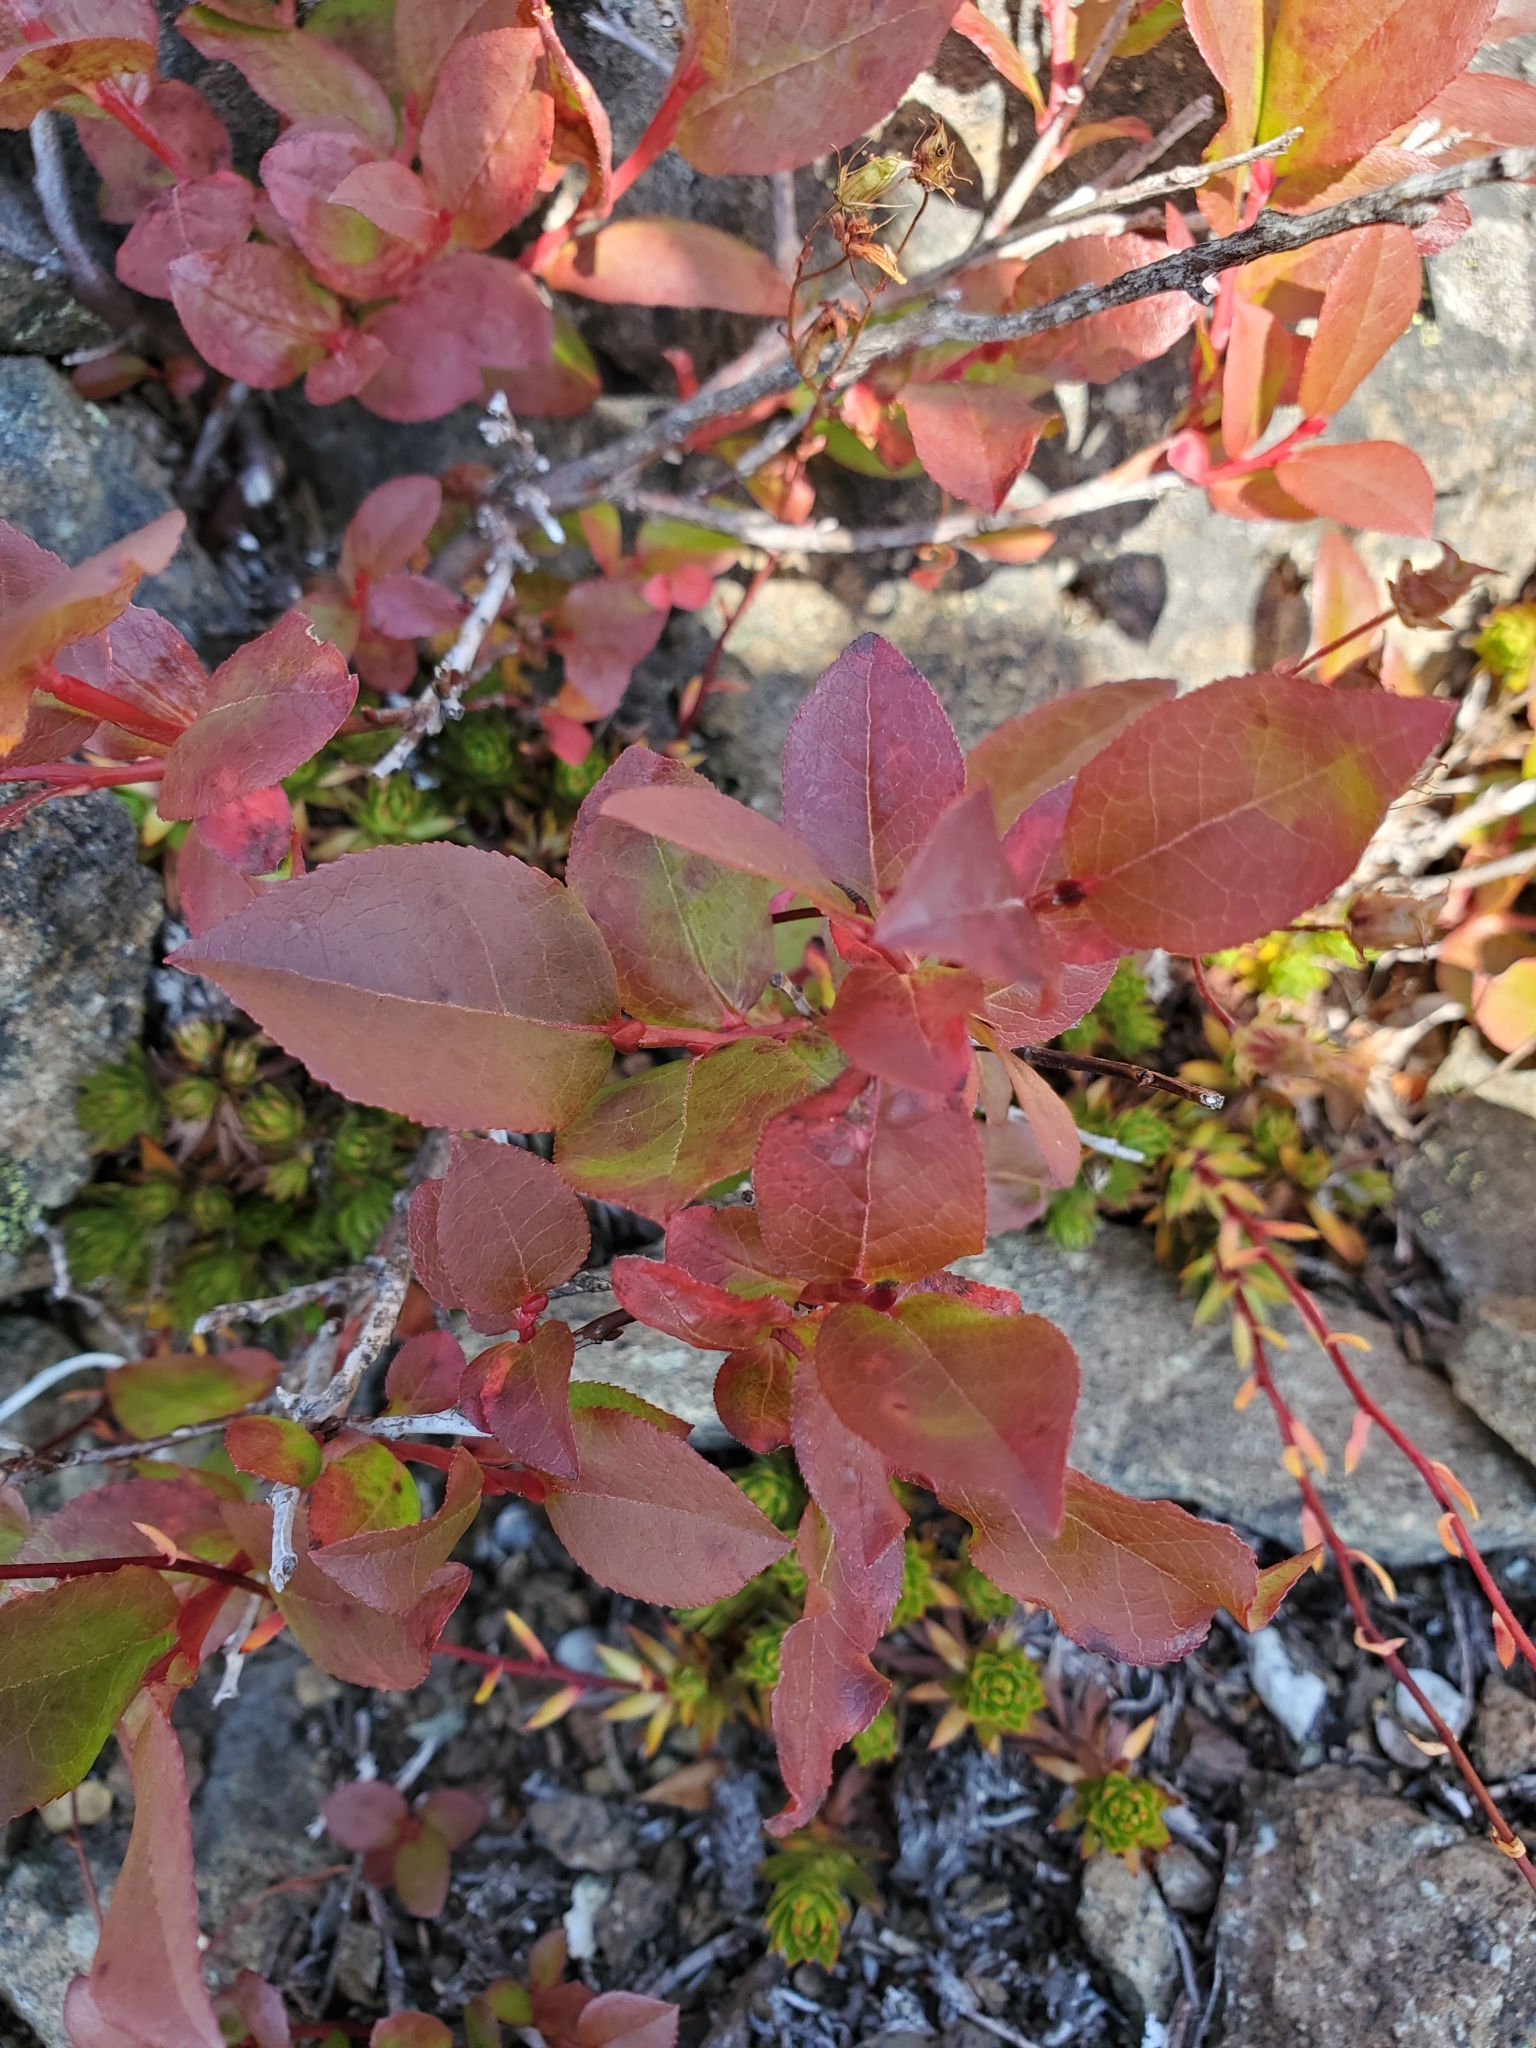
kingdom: Plantae
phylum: Tracheophyta
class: Magnoliopsida
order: Ericales
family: Ericaceae
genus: Vaccinium
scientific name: Vaccinium cespitosum
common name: Dwarf bilberry
